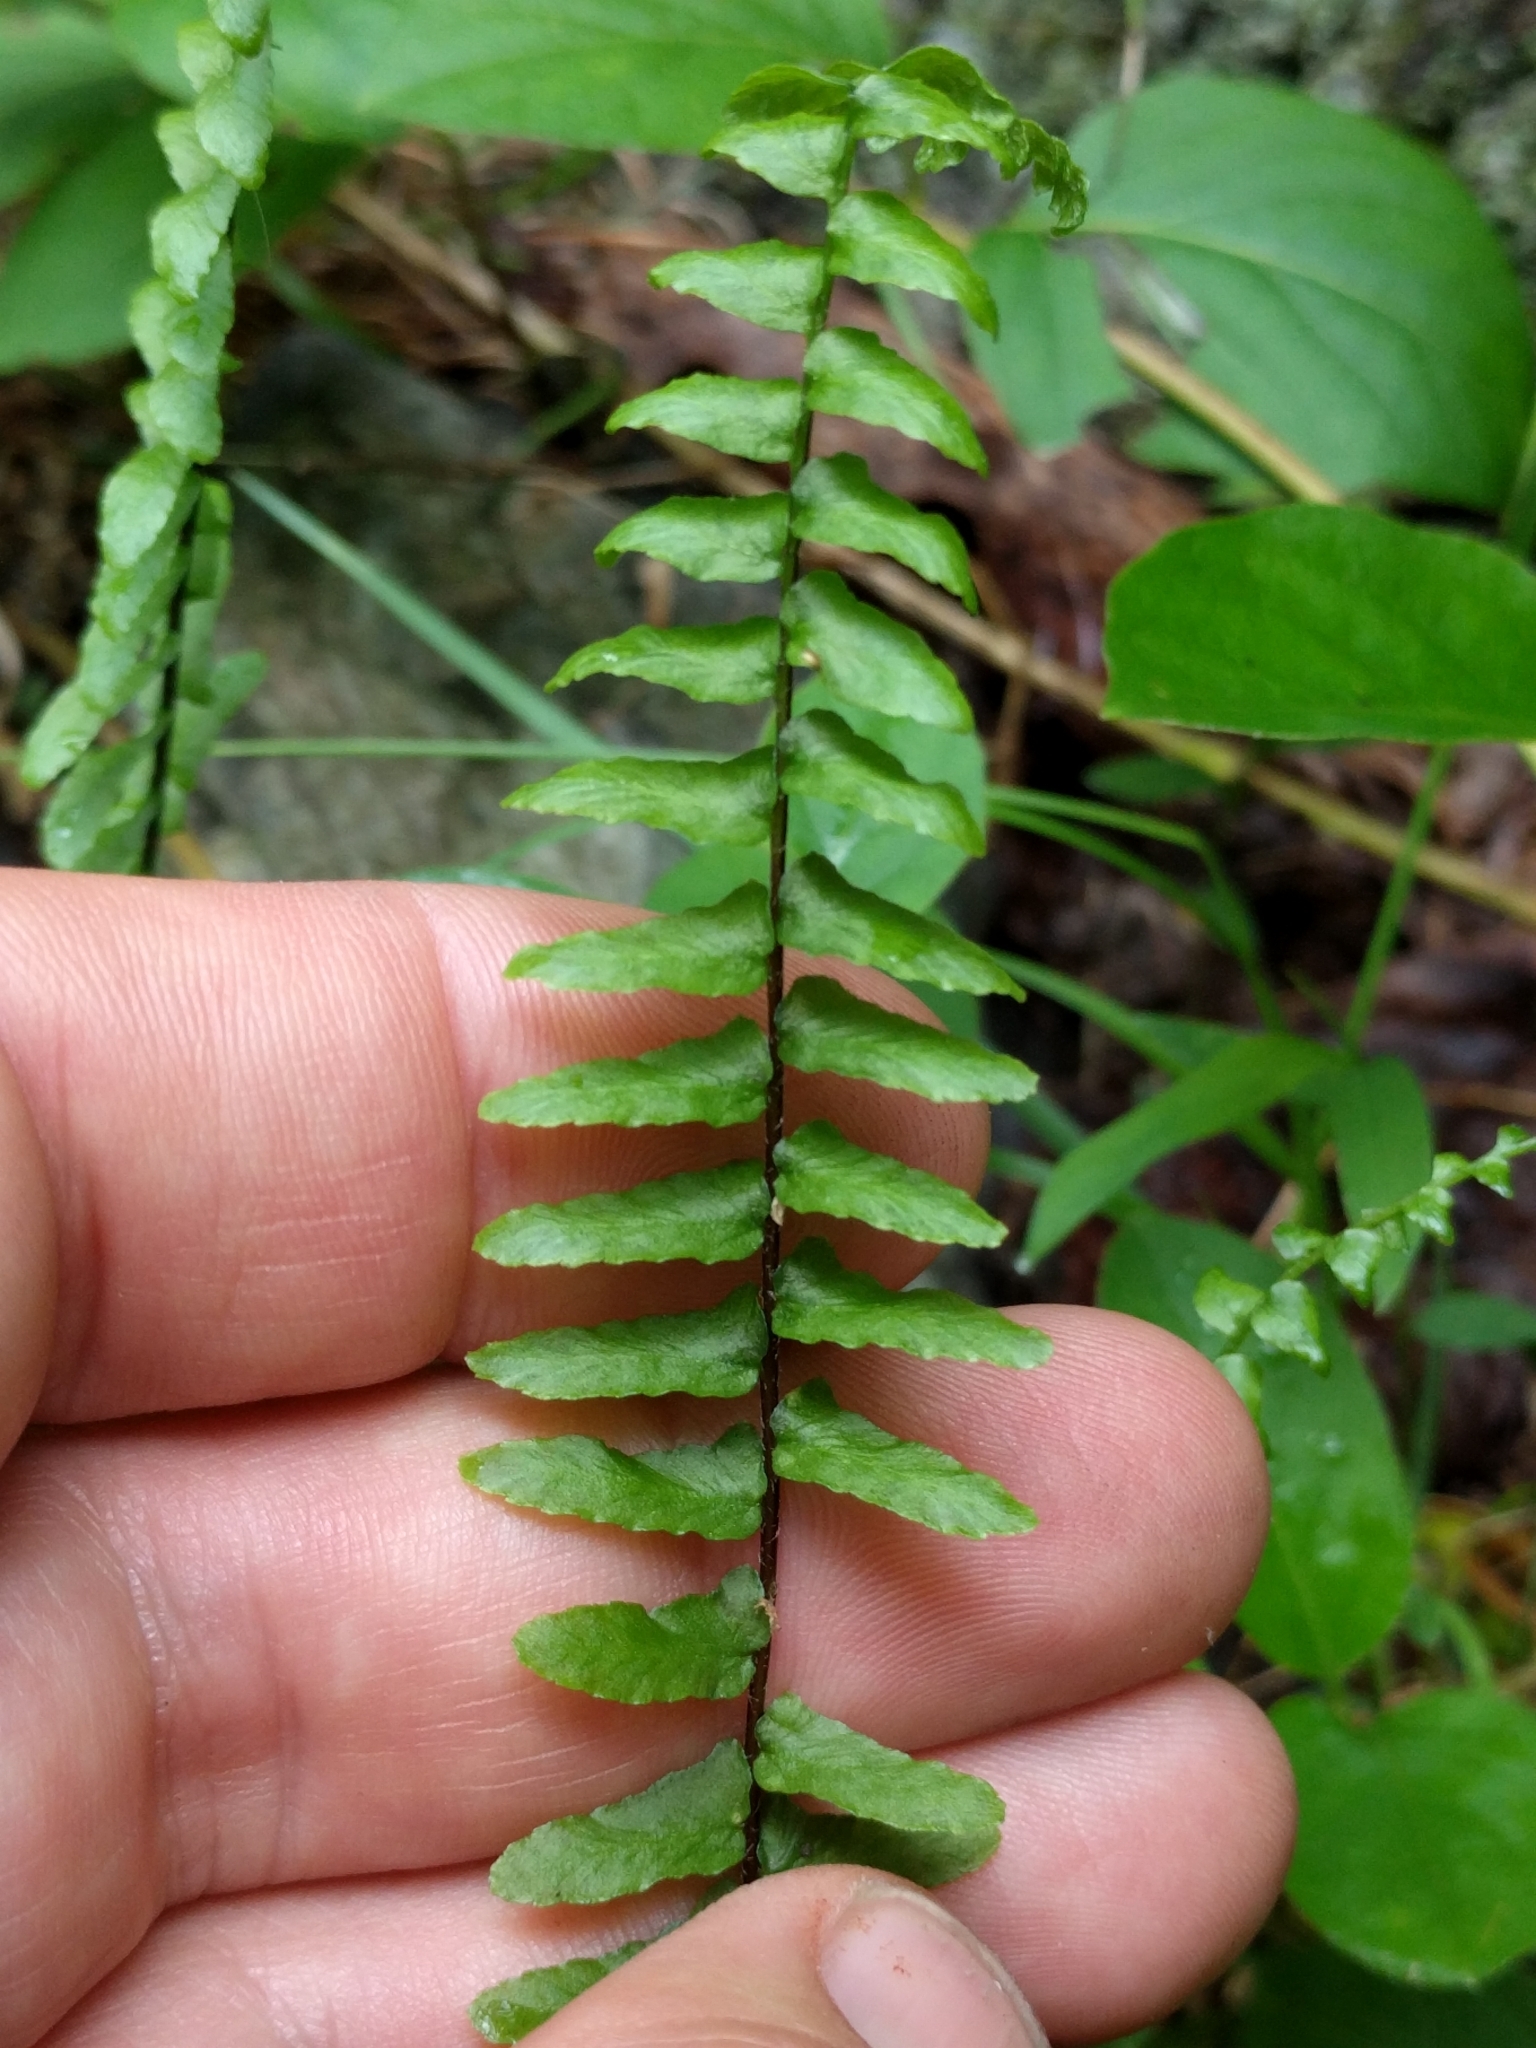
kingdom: Plantae
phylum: Tracheophyta
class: Polypodiopsida
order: Polypodiales
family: Aspleniaceae
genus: Asplenium
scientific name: Asplenium platyneuron
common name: Ebony spleenwort
